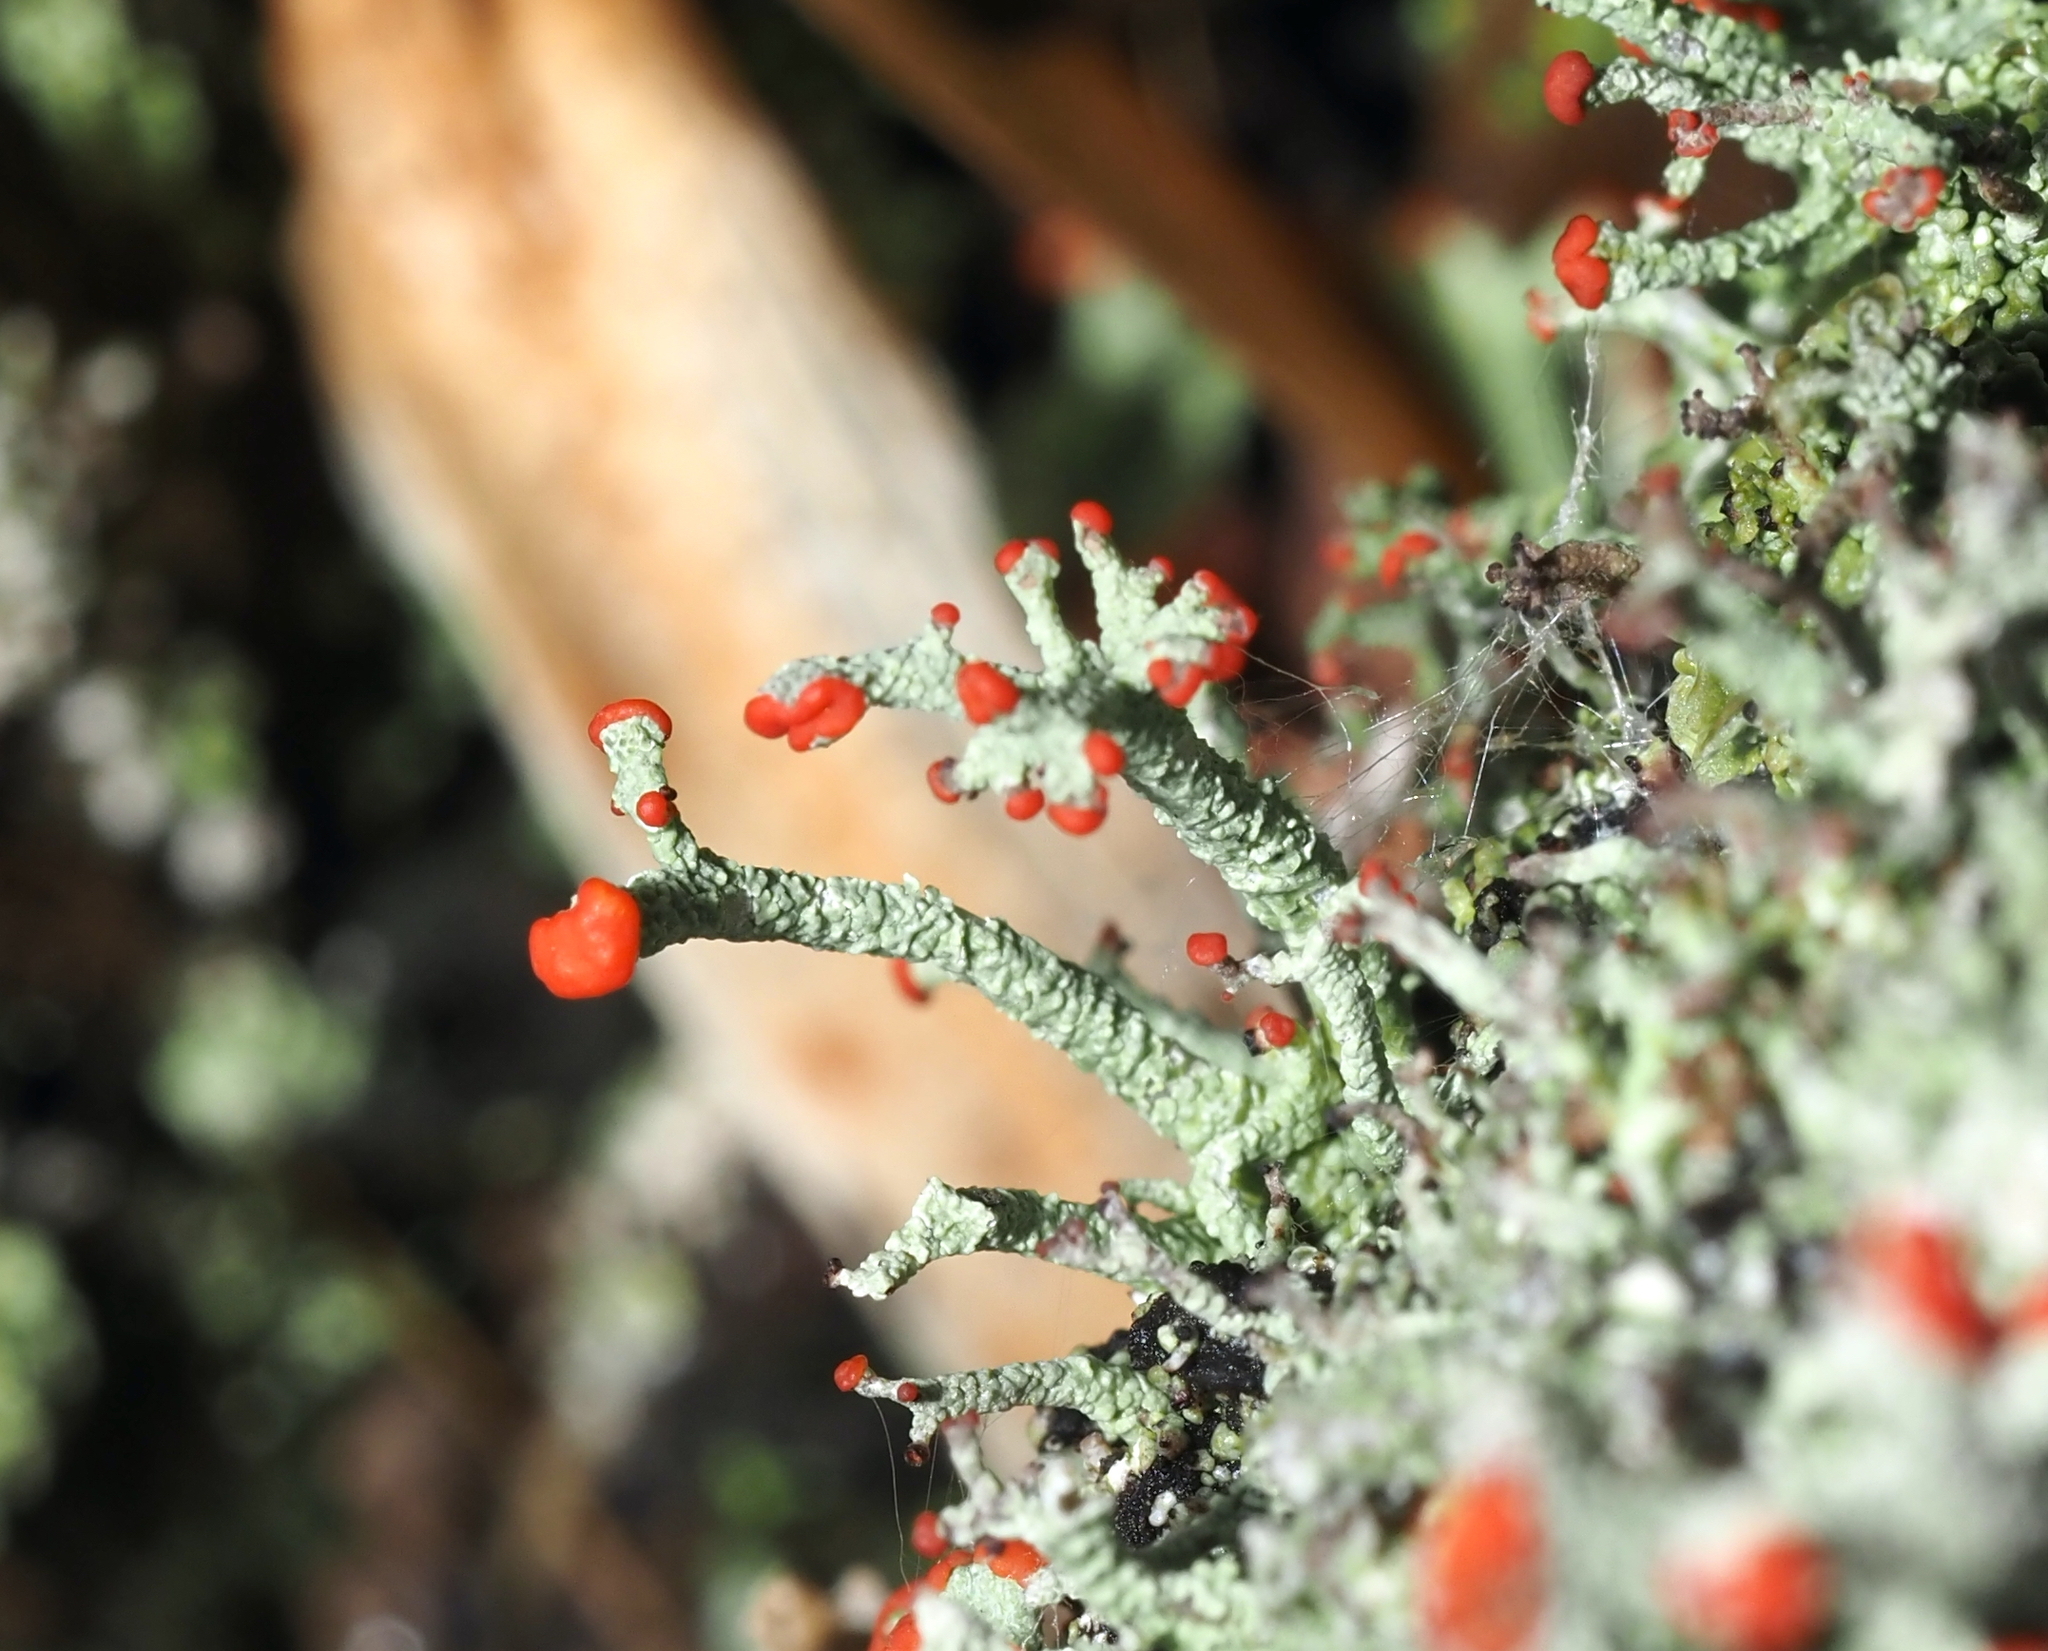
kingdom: Fungi
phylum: Ascomycota
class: Lecanoromycetes
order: Lecanorales
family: Cladoniaceae
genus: Cladonia
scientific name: Cladonia cristatella
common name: British soldier lichen
